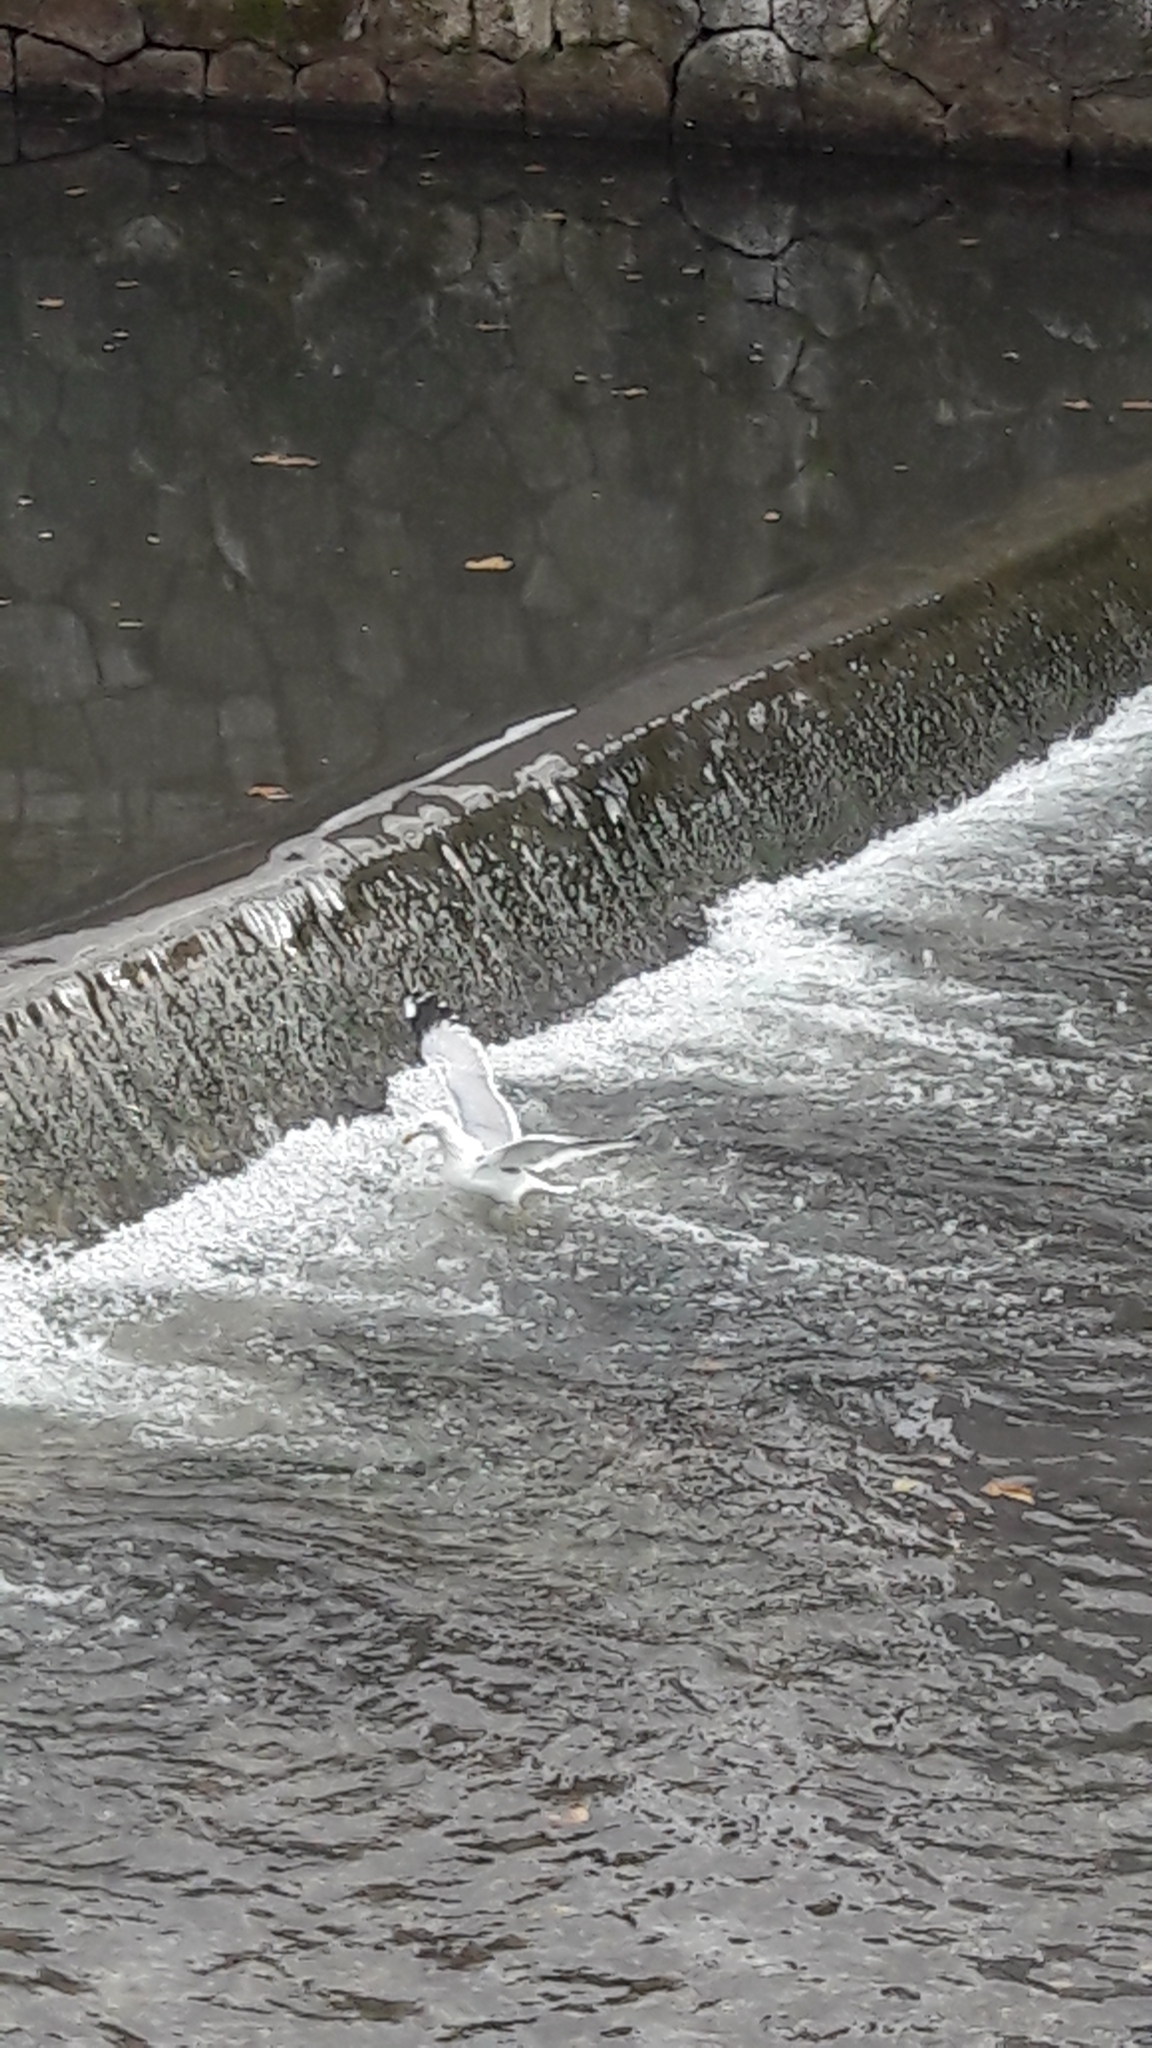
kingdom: Animalia
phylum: Chordata
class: Aves
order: Charadriiformes
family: Laridae
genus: Larus
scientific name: Larus michahellis
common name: Yellow-legged gull
